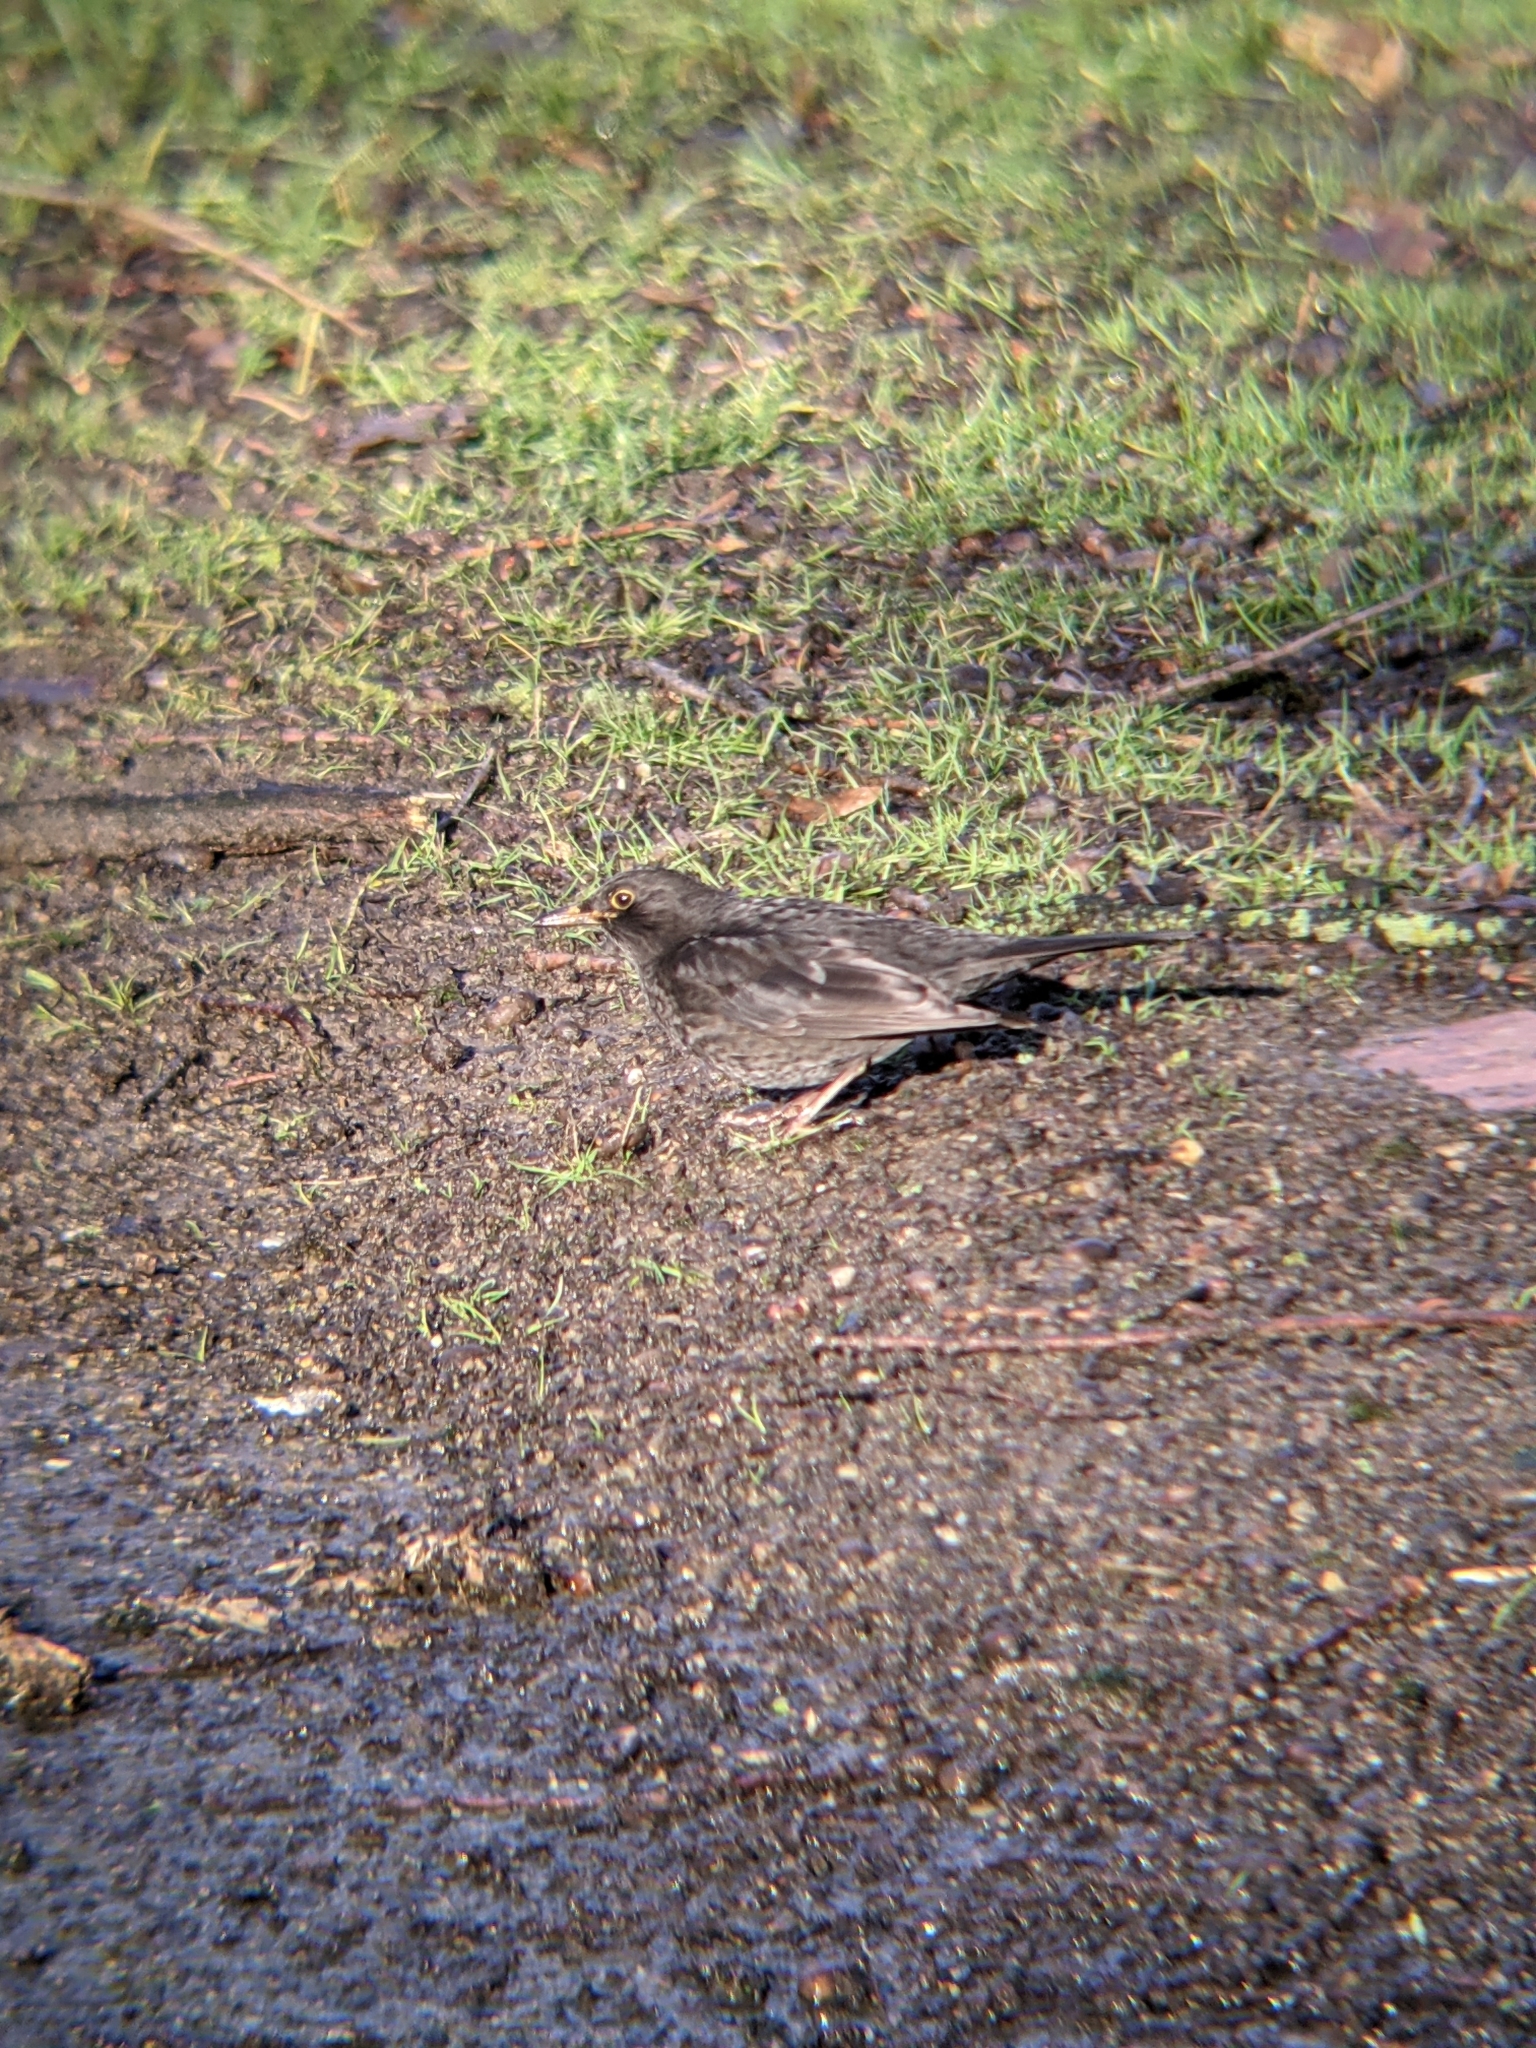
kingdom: Animalia
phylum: Chordata
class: Aves
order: Passeriformes
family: Turdidae
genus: Turdus
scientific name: Turdus merula
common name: Common blackbird
